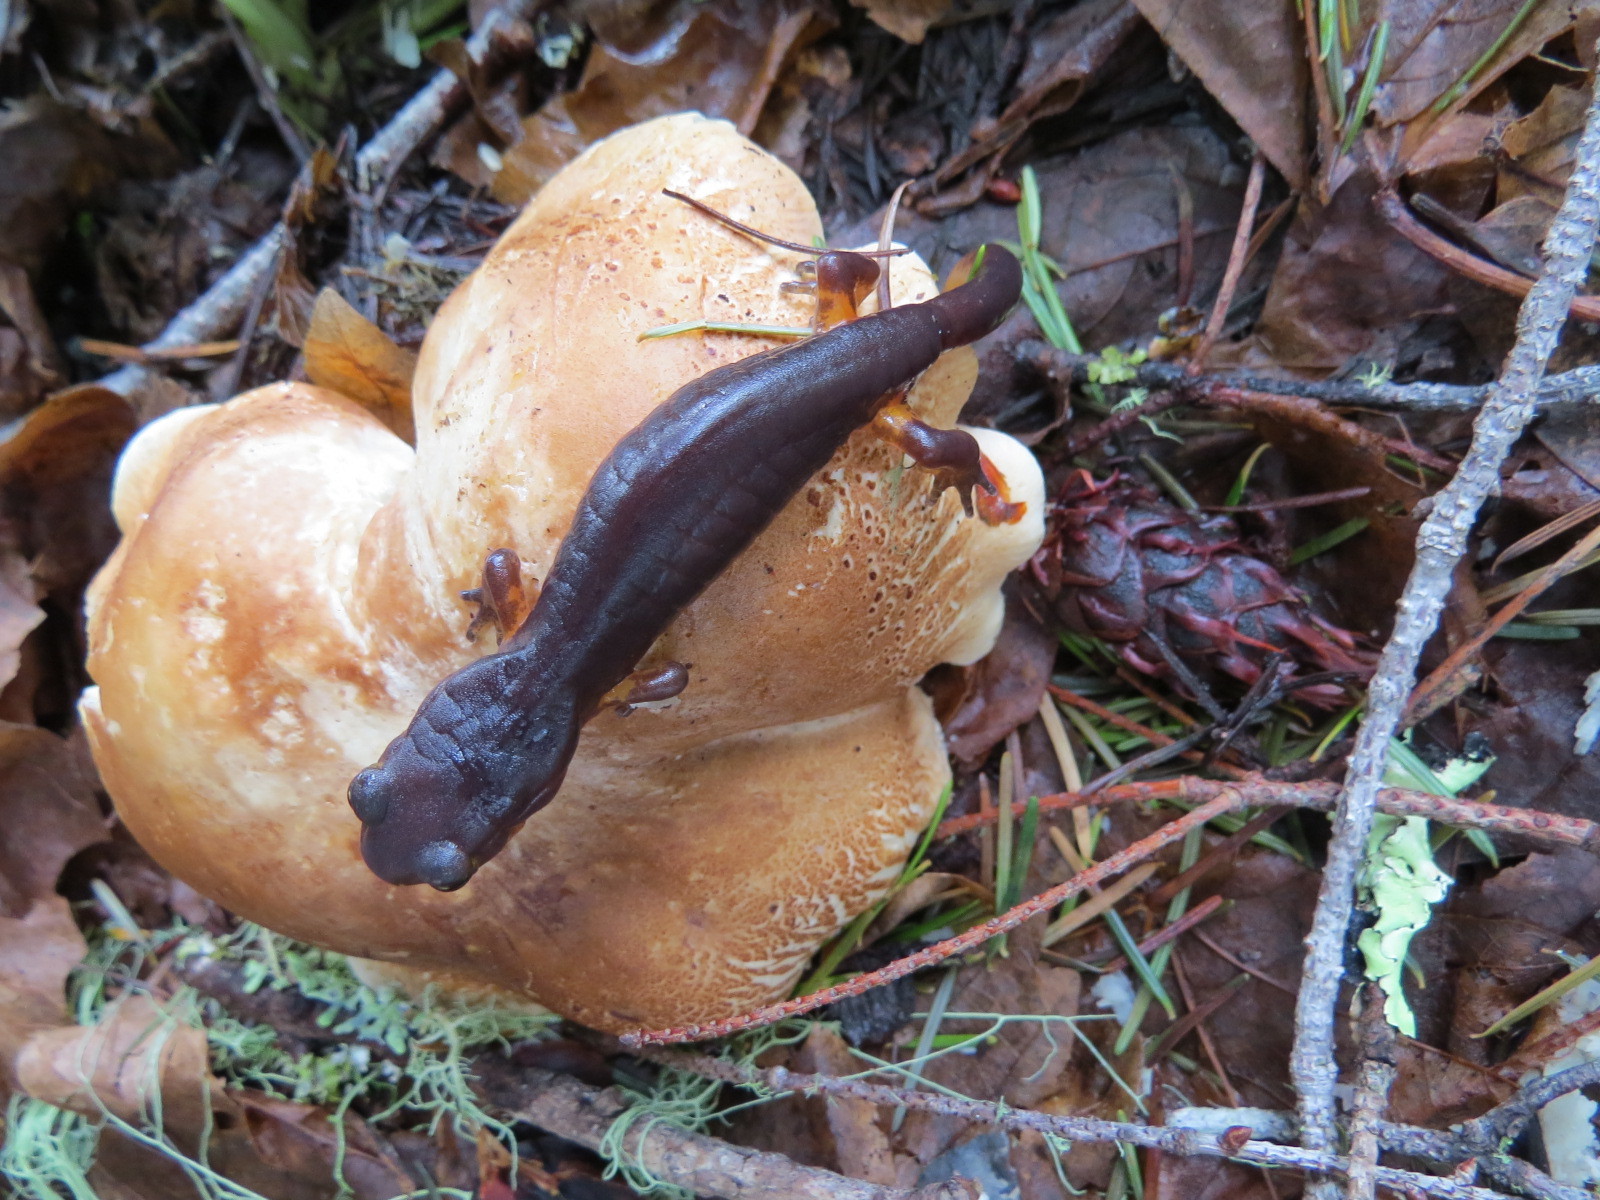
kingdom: Animalia
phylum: Chordata
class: Amphibia
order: Caudata
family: Plethodontidae
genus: Ensatina
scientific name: Ensatina eschscholtzii
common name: Ensatina
